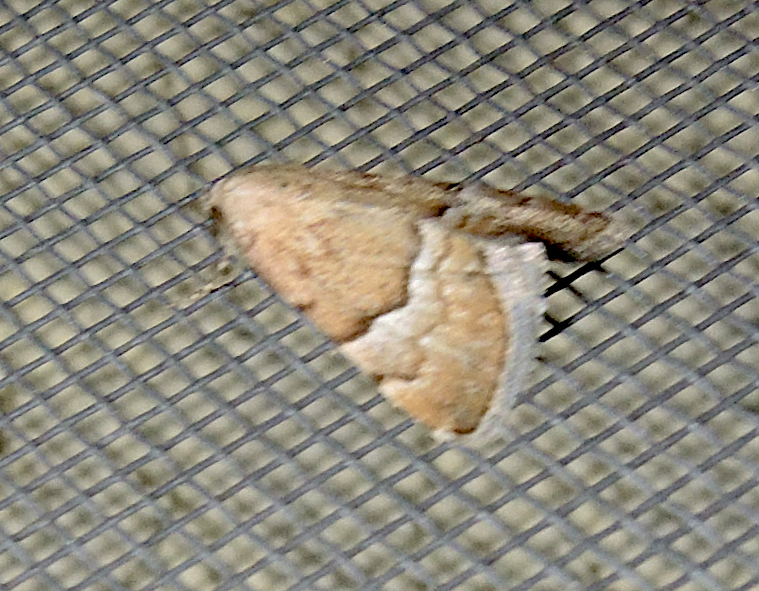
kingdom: Animalia
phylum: Arthropoda
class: Insecta
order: Lepidoptera
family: Noctuidae
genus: Odice
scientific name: Odice suava
